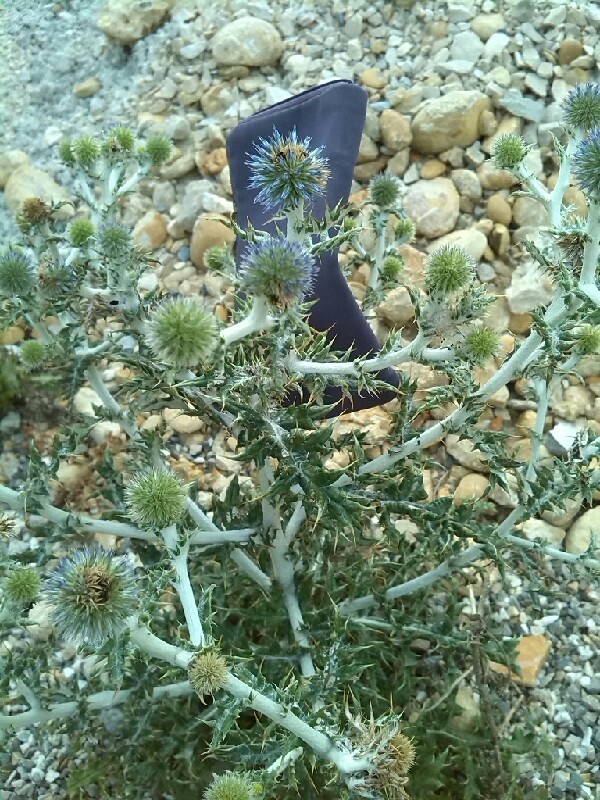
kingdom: Plantae
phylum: Tracheophyta
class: Magnoliopsida
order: Asterales
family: Asteraceae
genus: Echinops
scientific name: Echinops ritro
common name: Globe thistle
